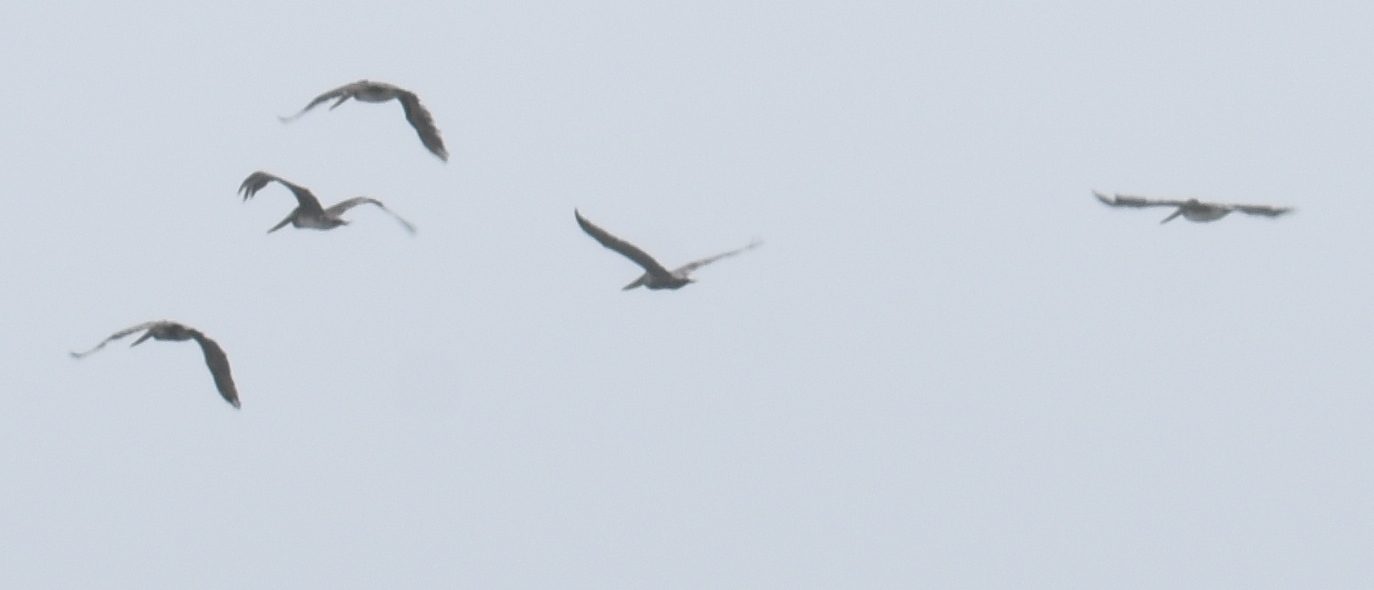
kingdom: Animalia
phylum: Chordata
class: Aves
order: Pelecaniformes
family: Pelecanidae
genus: Pelecanus
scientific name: Pelecanus occidentalis
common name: Brown pelican
